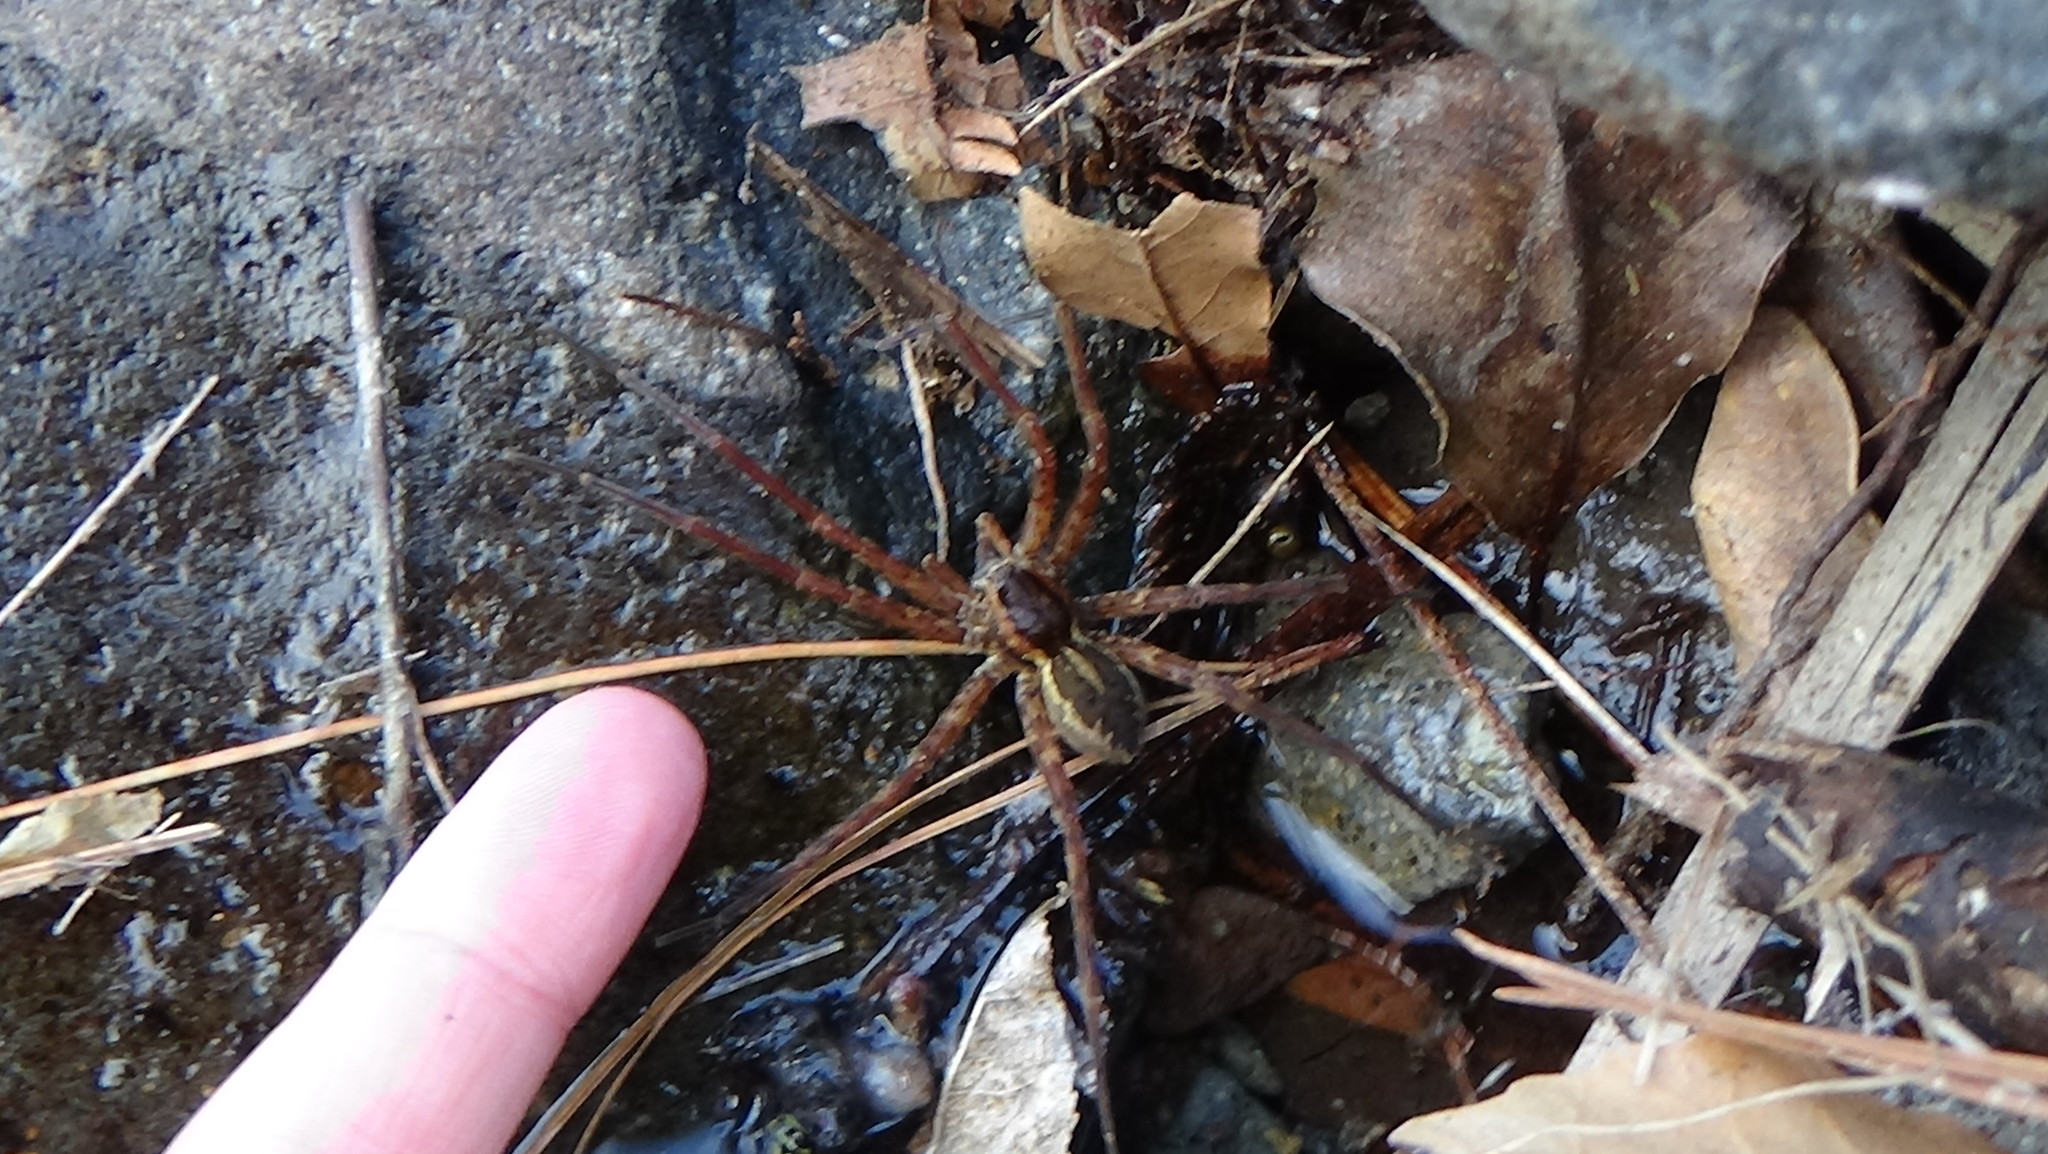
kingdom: Animalia
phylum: Arthropoda
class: Arachnida
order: Araneae
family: Pisauridae
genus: Dolomedes
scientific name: Dolomedes dondalei
